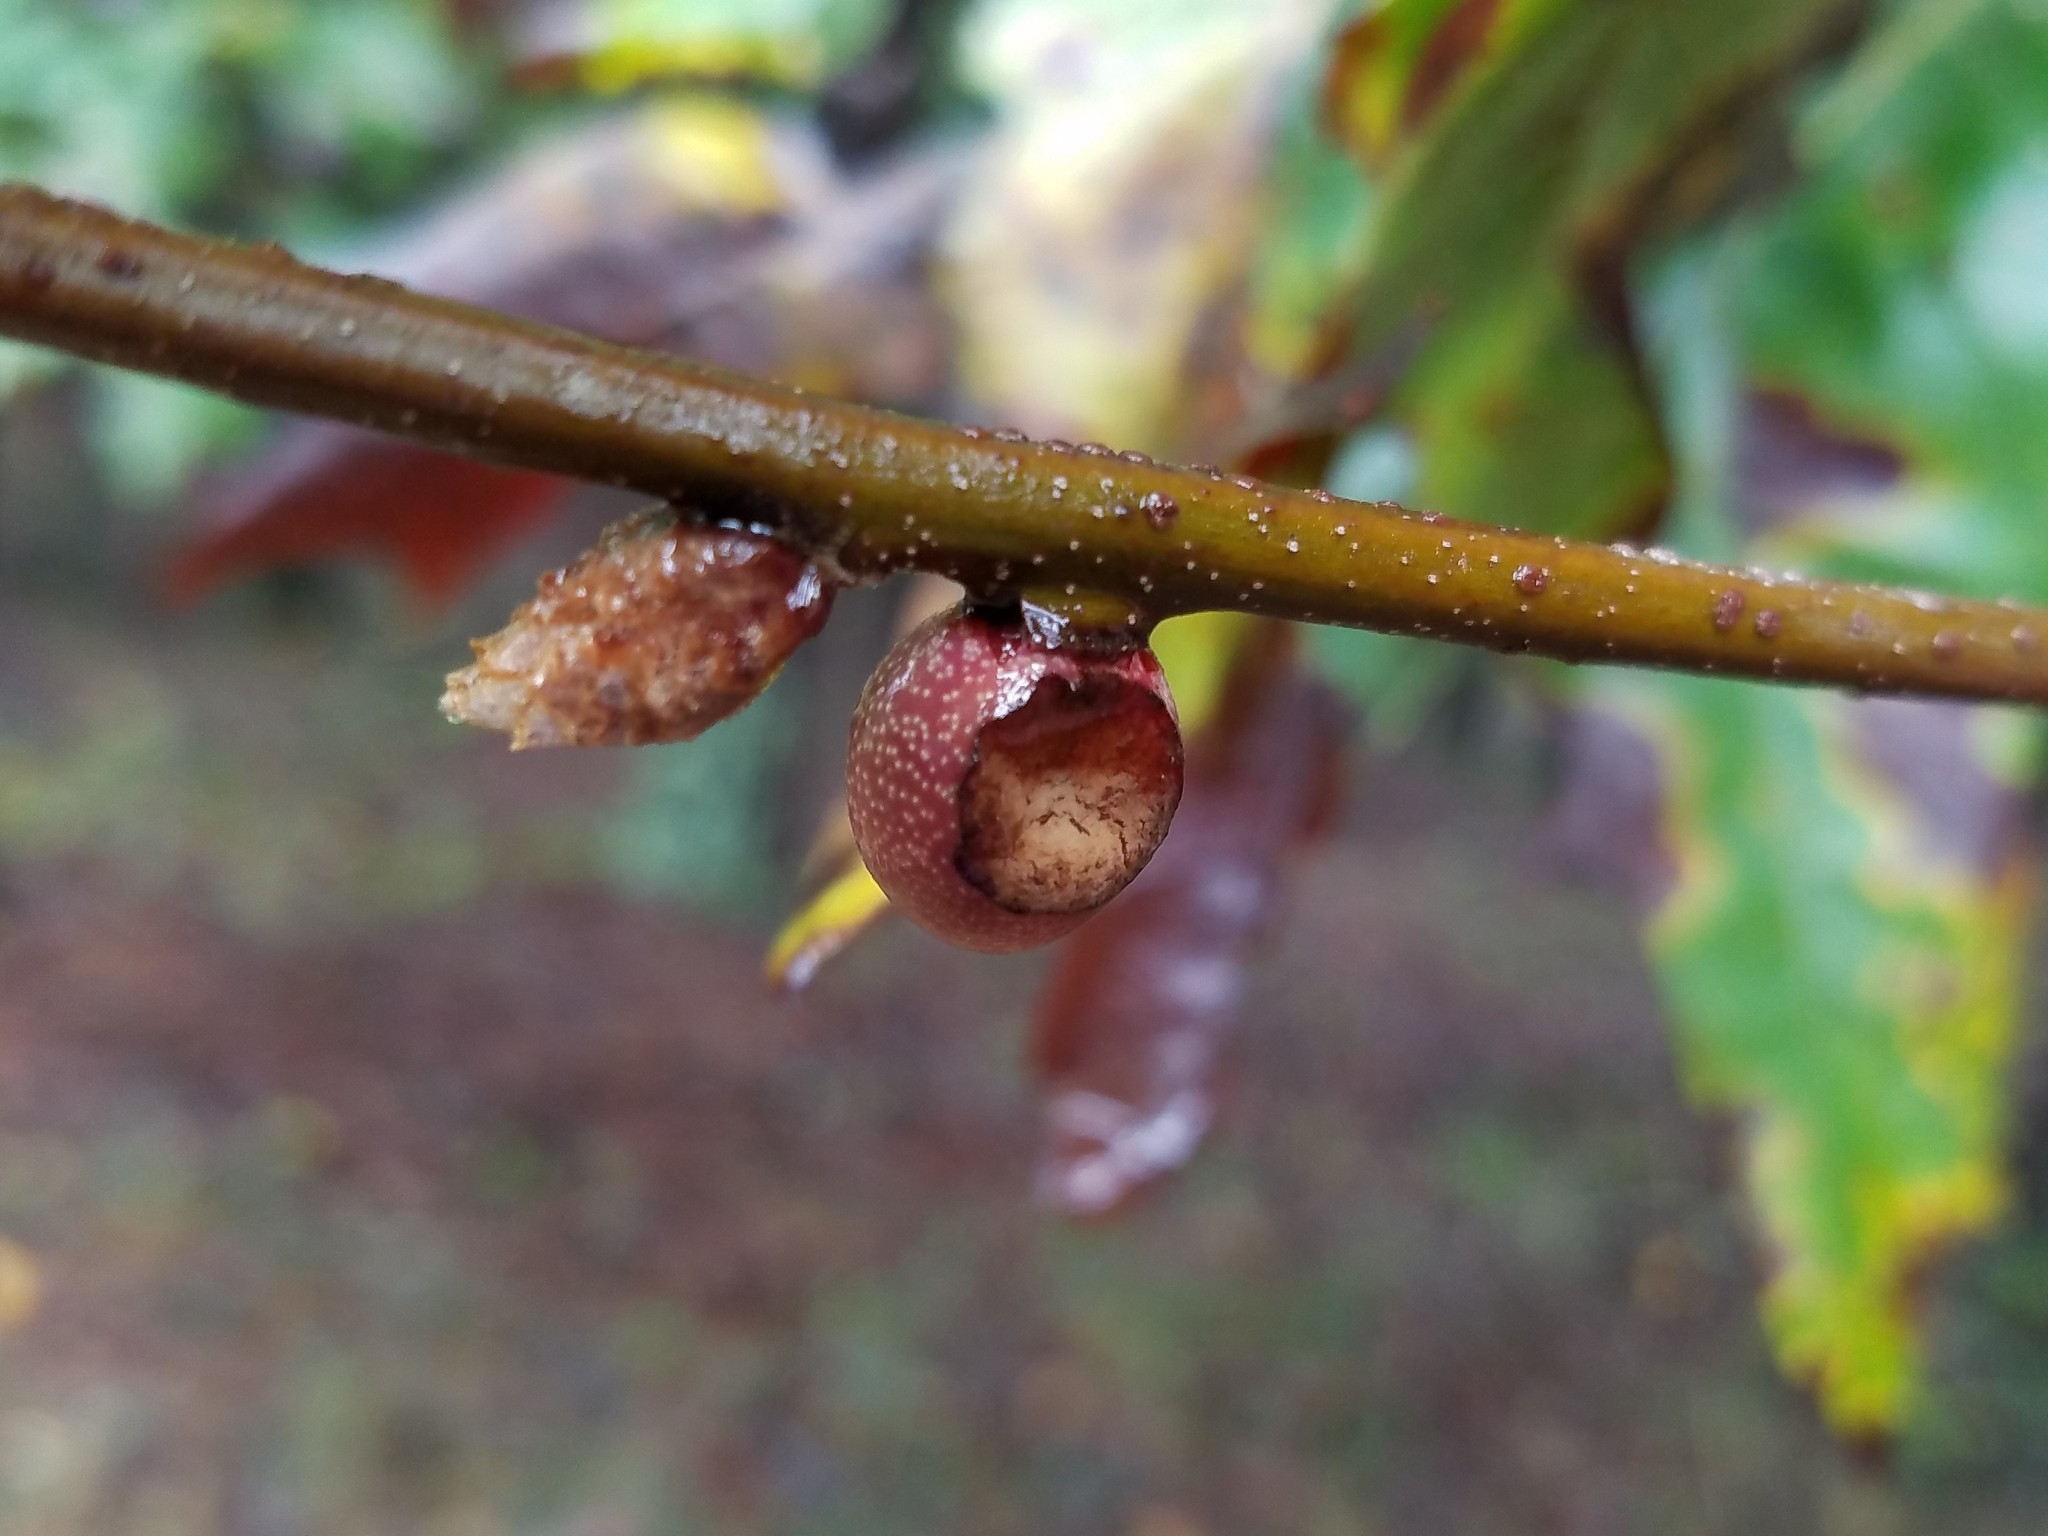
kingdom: Animalia
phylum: Arthropoda
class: Insecta
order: Hymenoptera
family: Cynipidae
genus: Kokkocynips
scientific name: Kokkocynips imbricariae
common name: Banded bullet gall wasp
